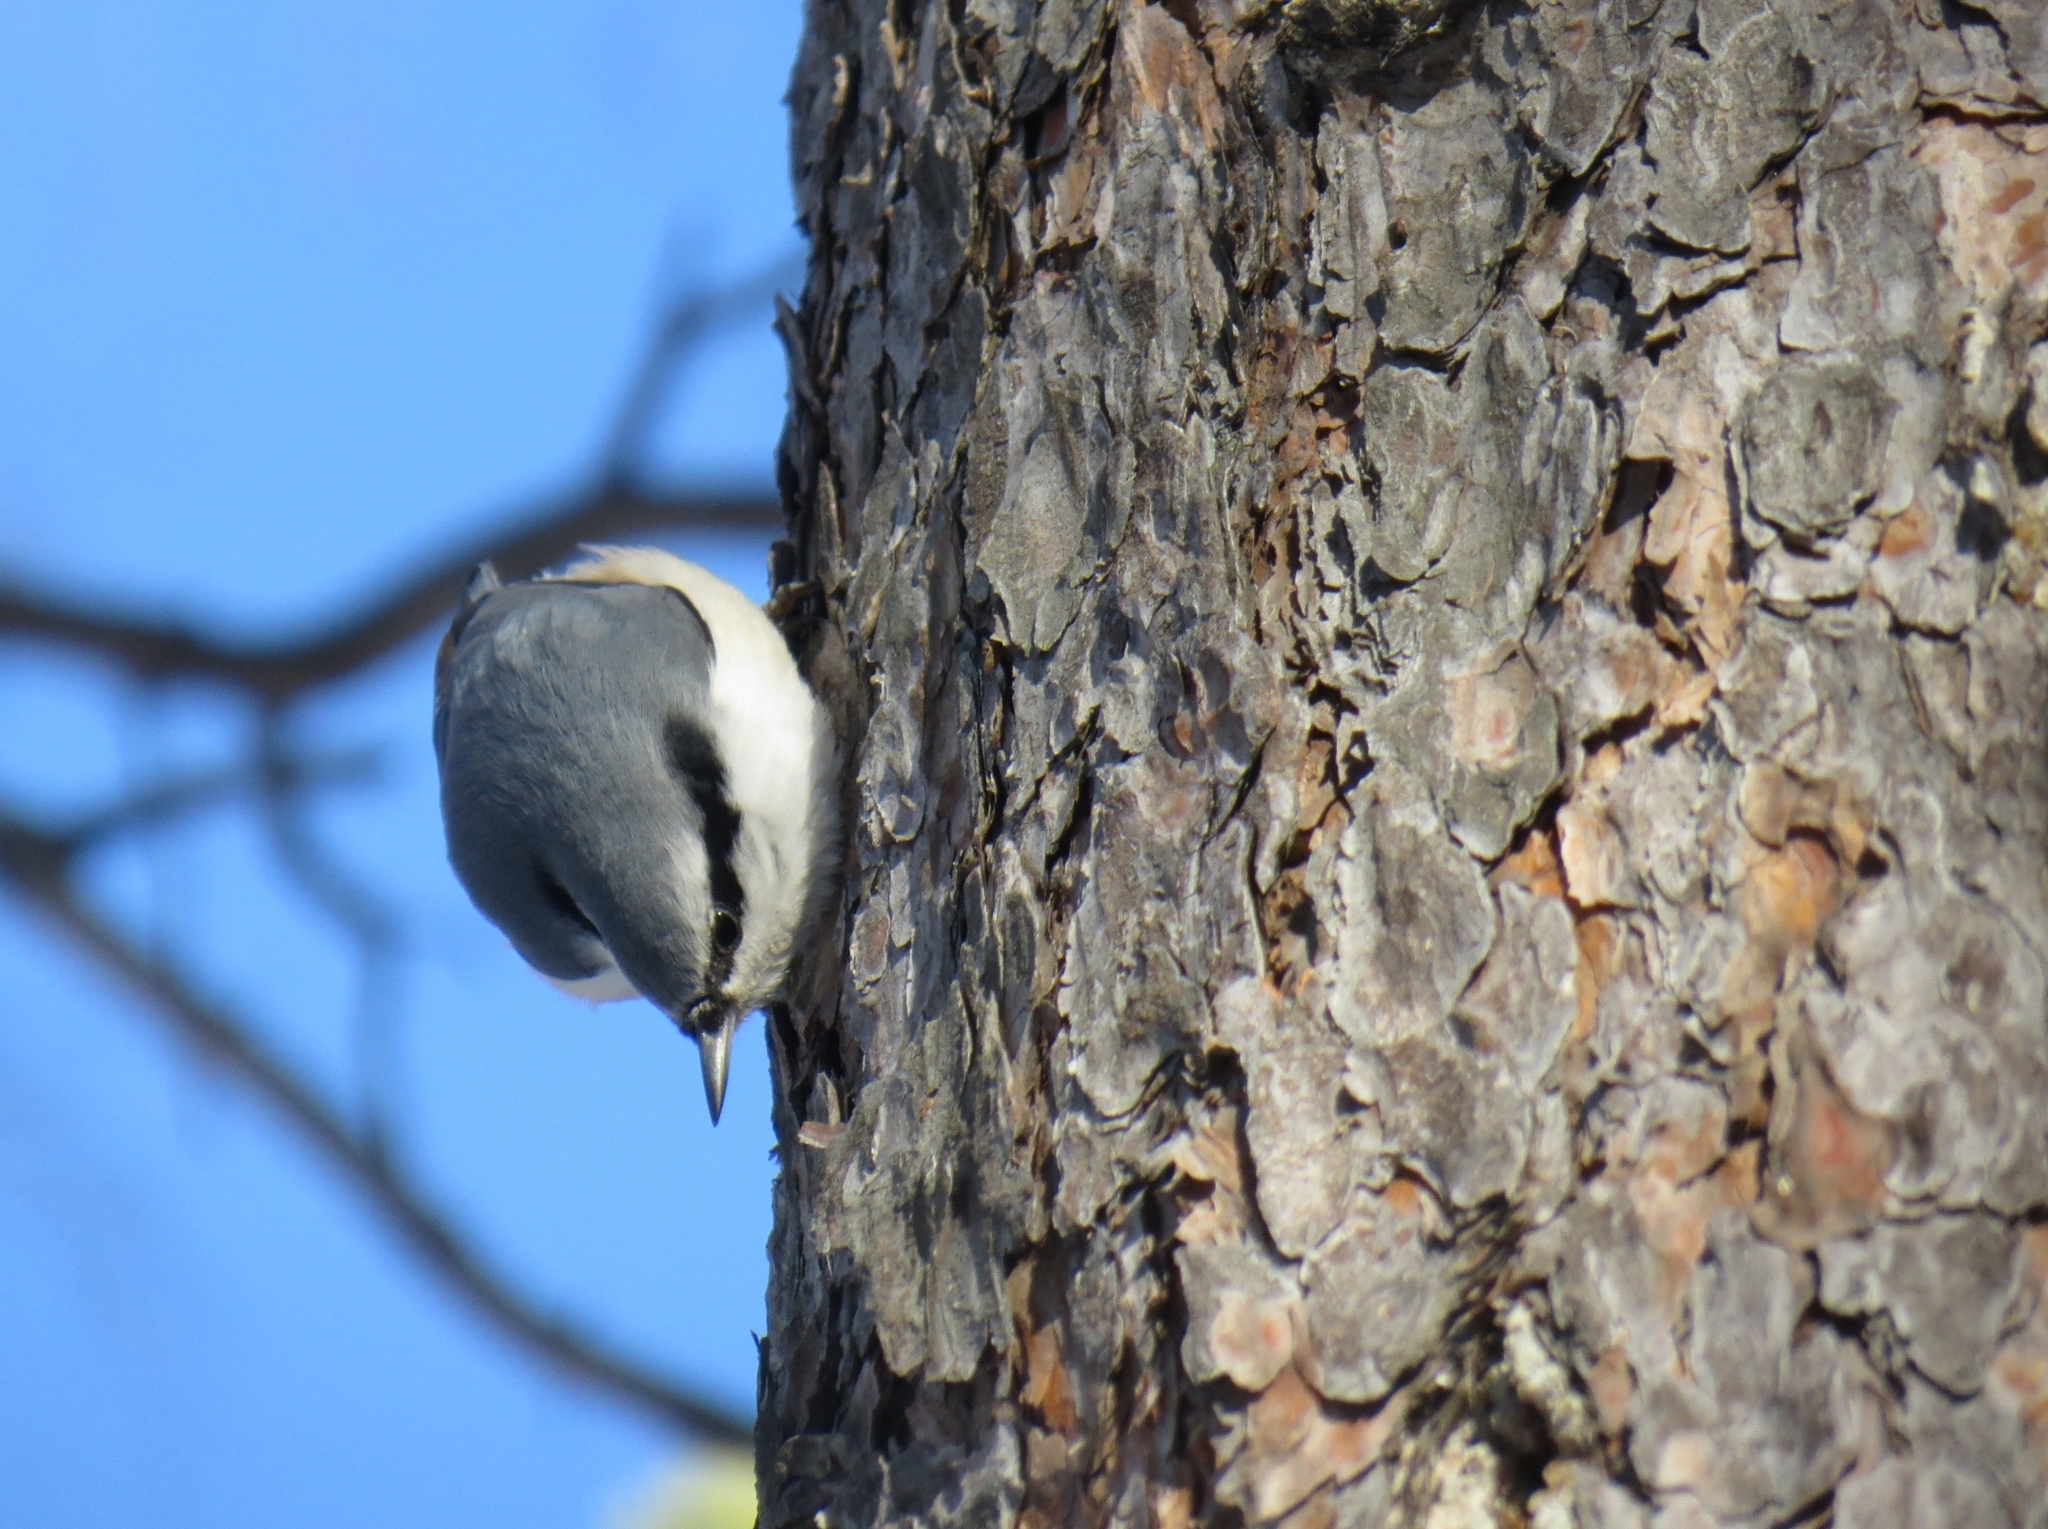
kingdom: Animalia
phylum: Chordata
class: Aves
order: Passeriformes
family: Sittidae
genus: Sitta
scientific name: Sitta europaea
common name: Eurasian nuthatch
